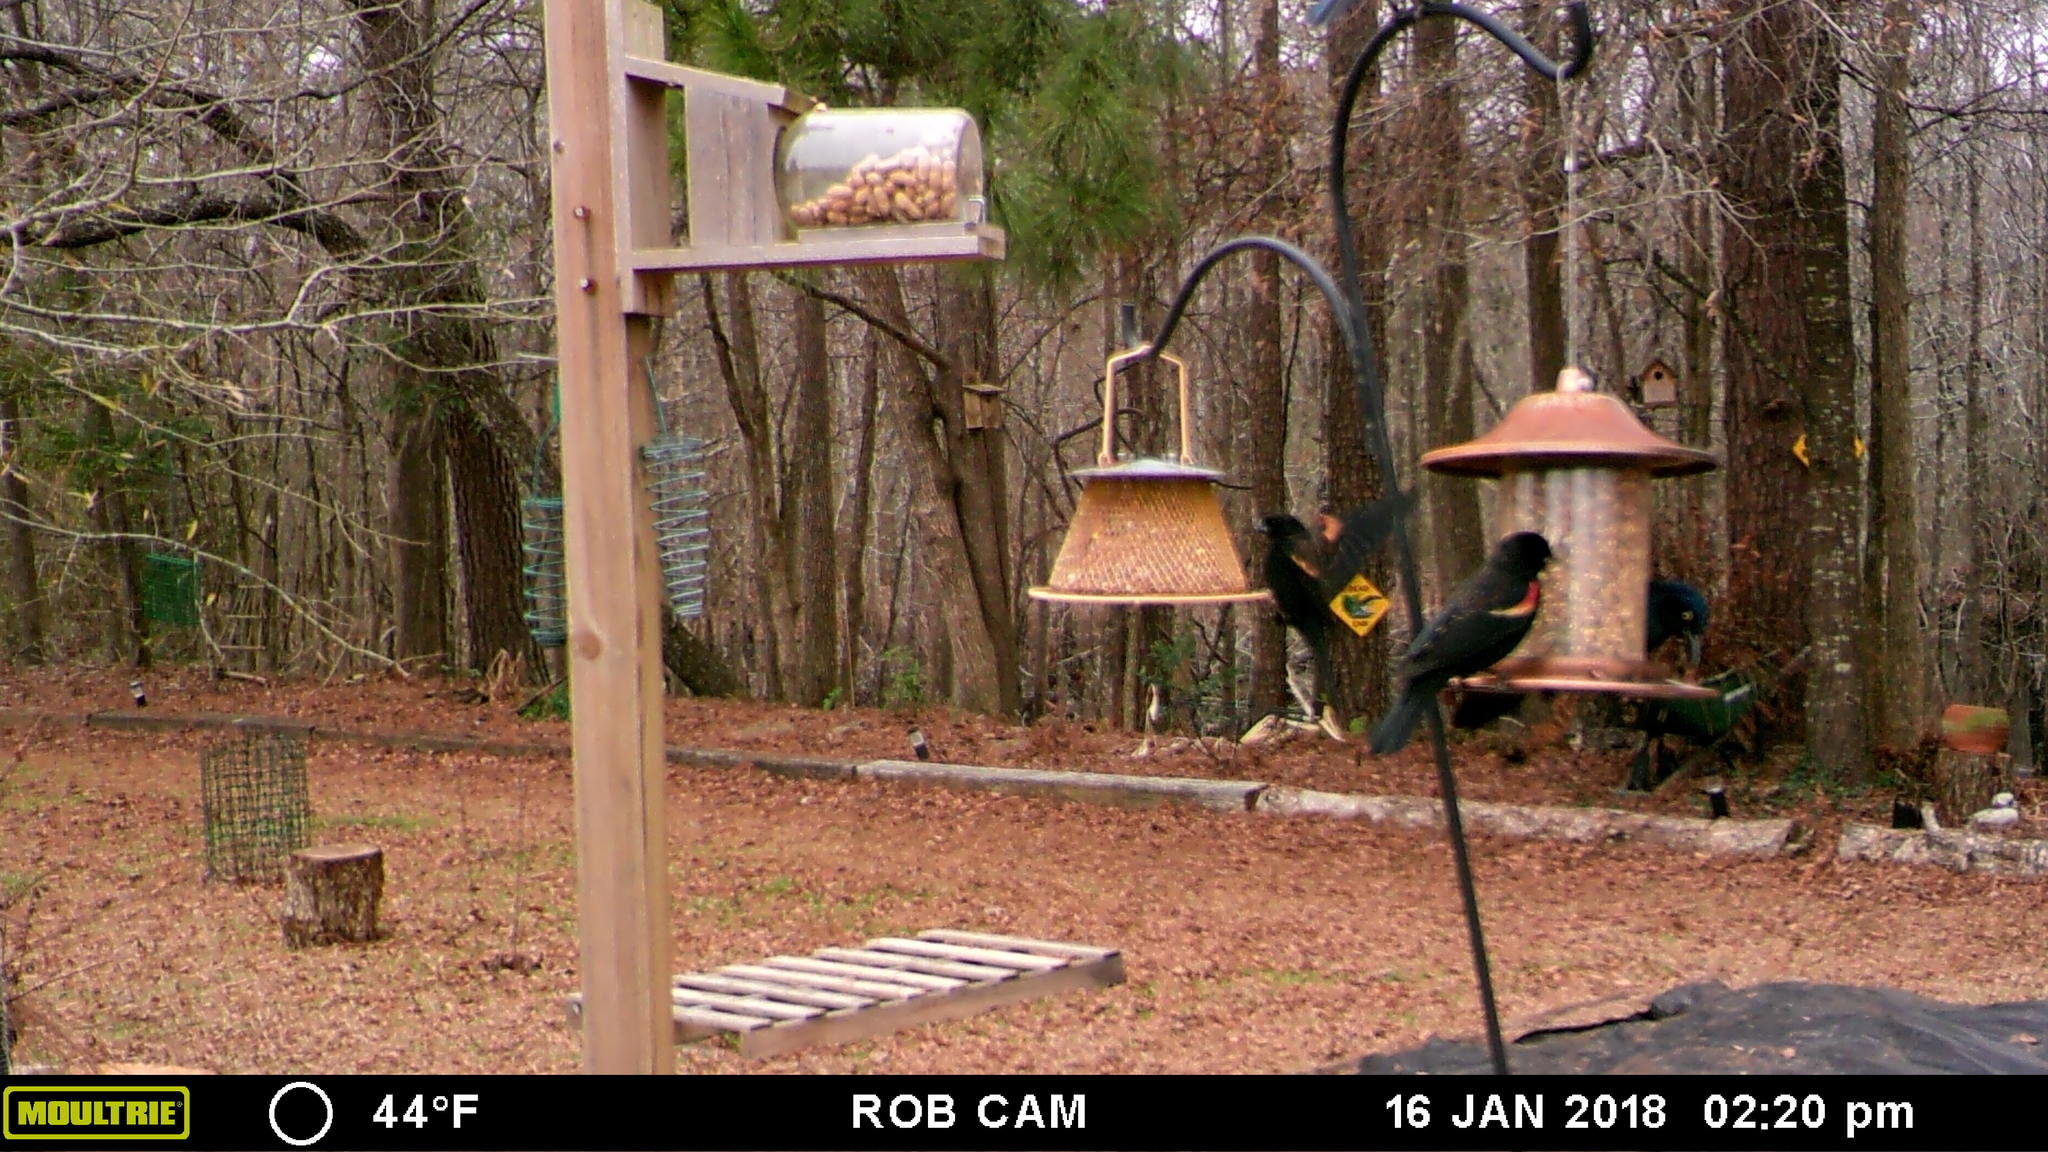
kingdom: Animalia
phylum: Chordata
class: Aves
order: Passeriformes
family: Icteridae
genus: Agelaius
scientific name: Agelaius phoeniceus
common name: Red-winged blackbird
